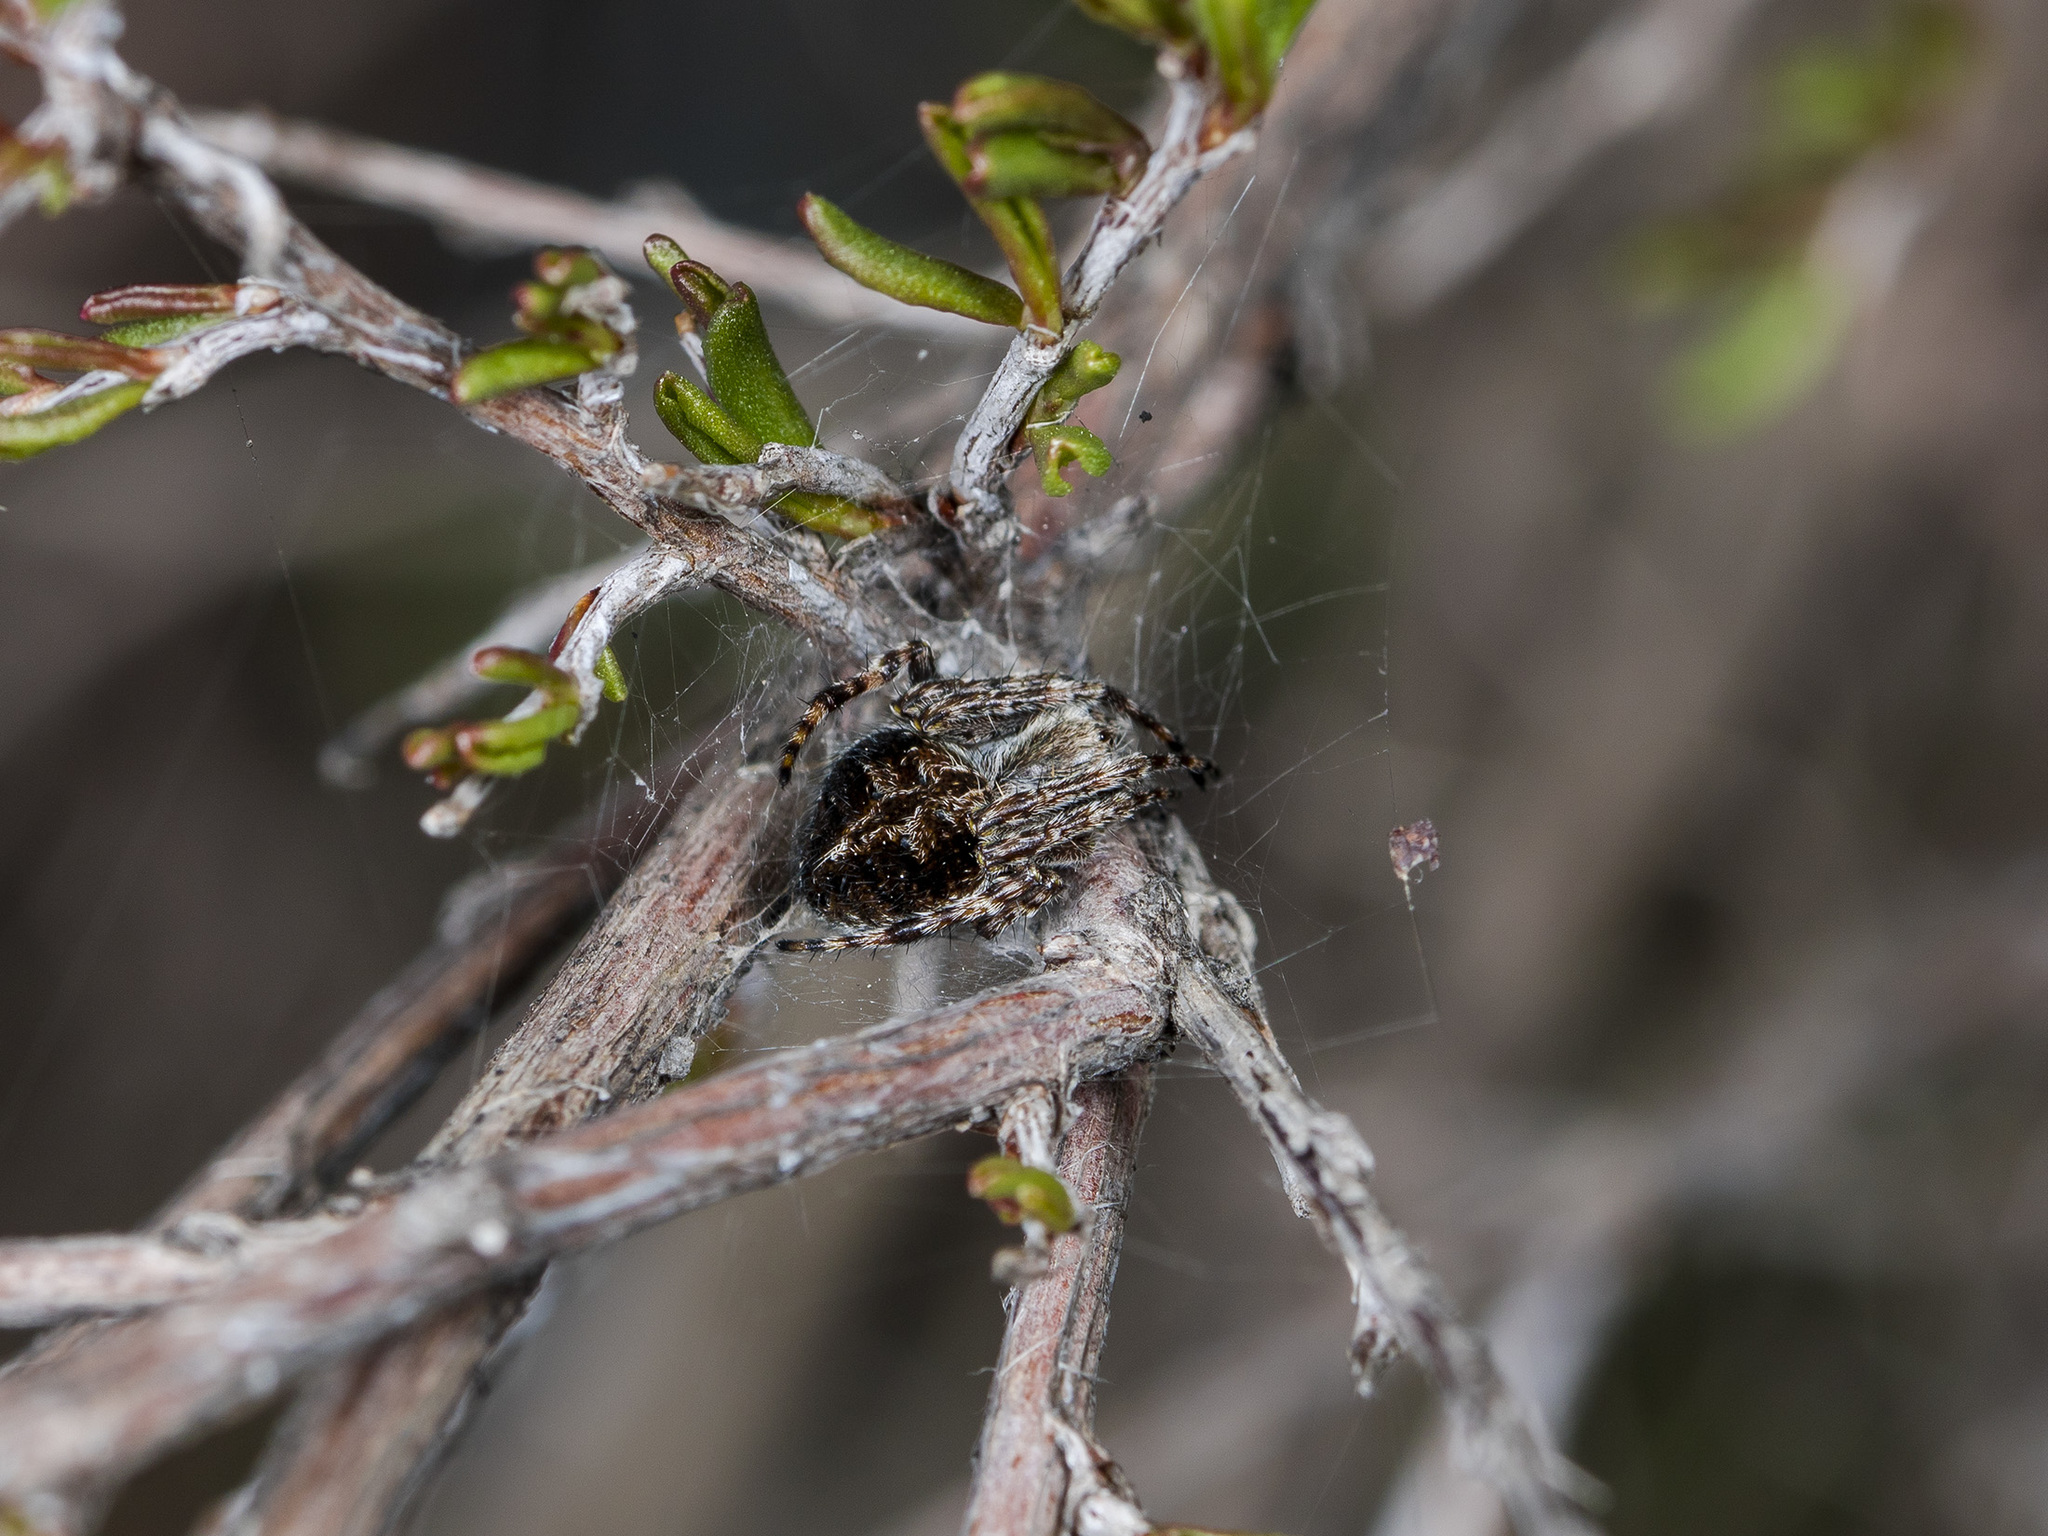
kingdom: Animalia
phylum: Arthropoda
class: Arachnida
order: Araneae
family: Araneidae
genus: Agalenatea
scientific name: Agalenatea redii
